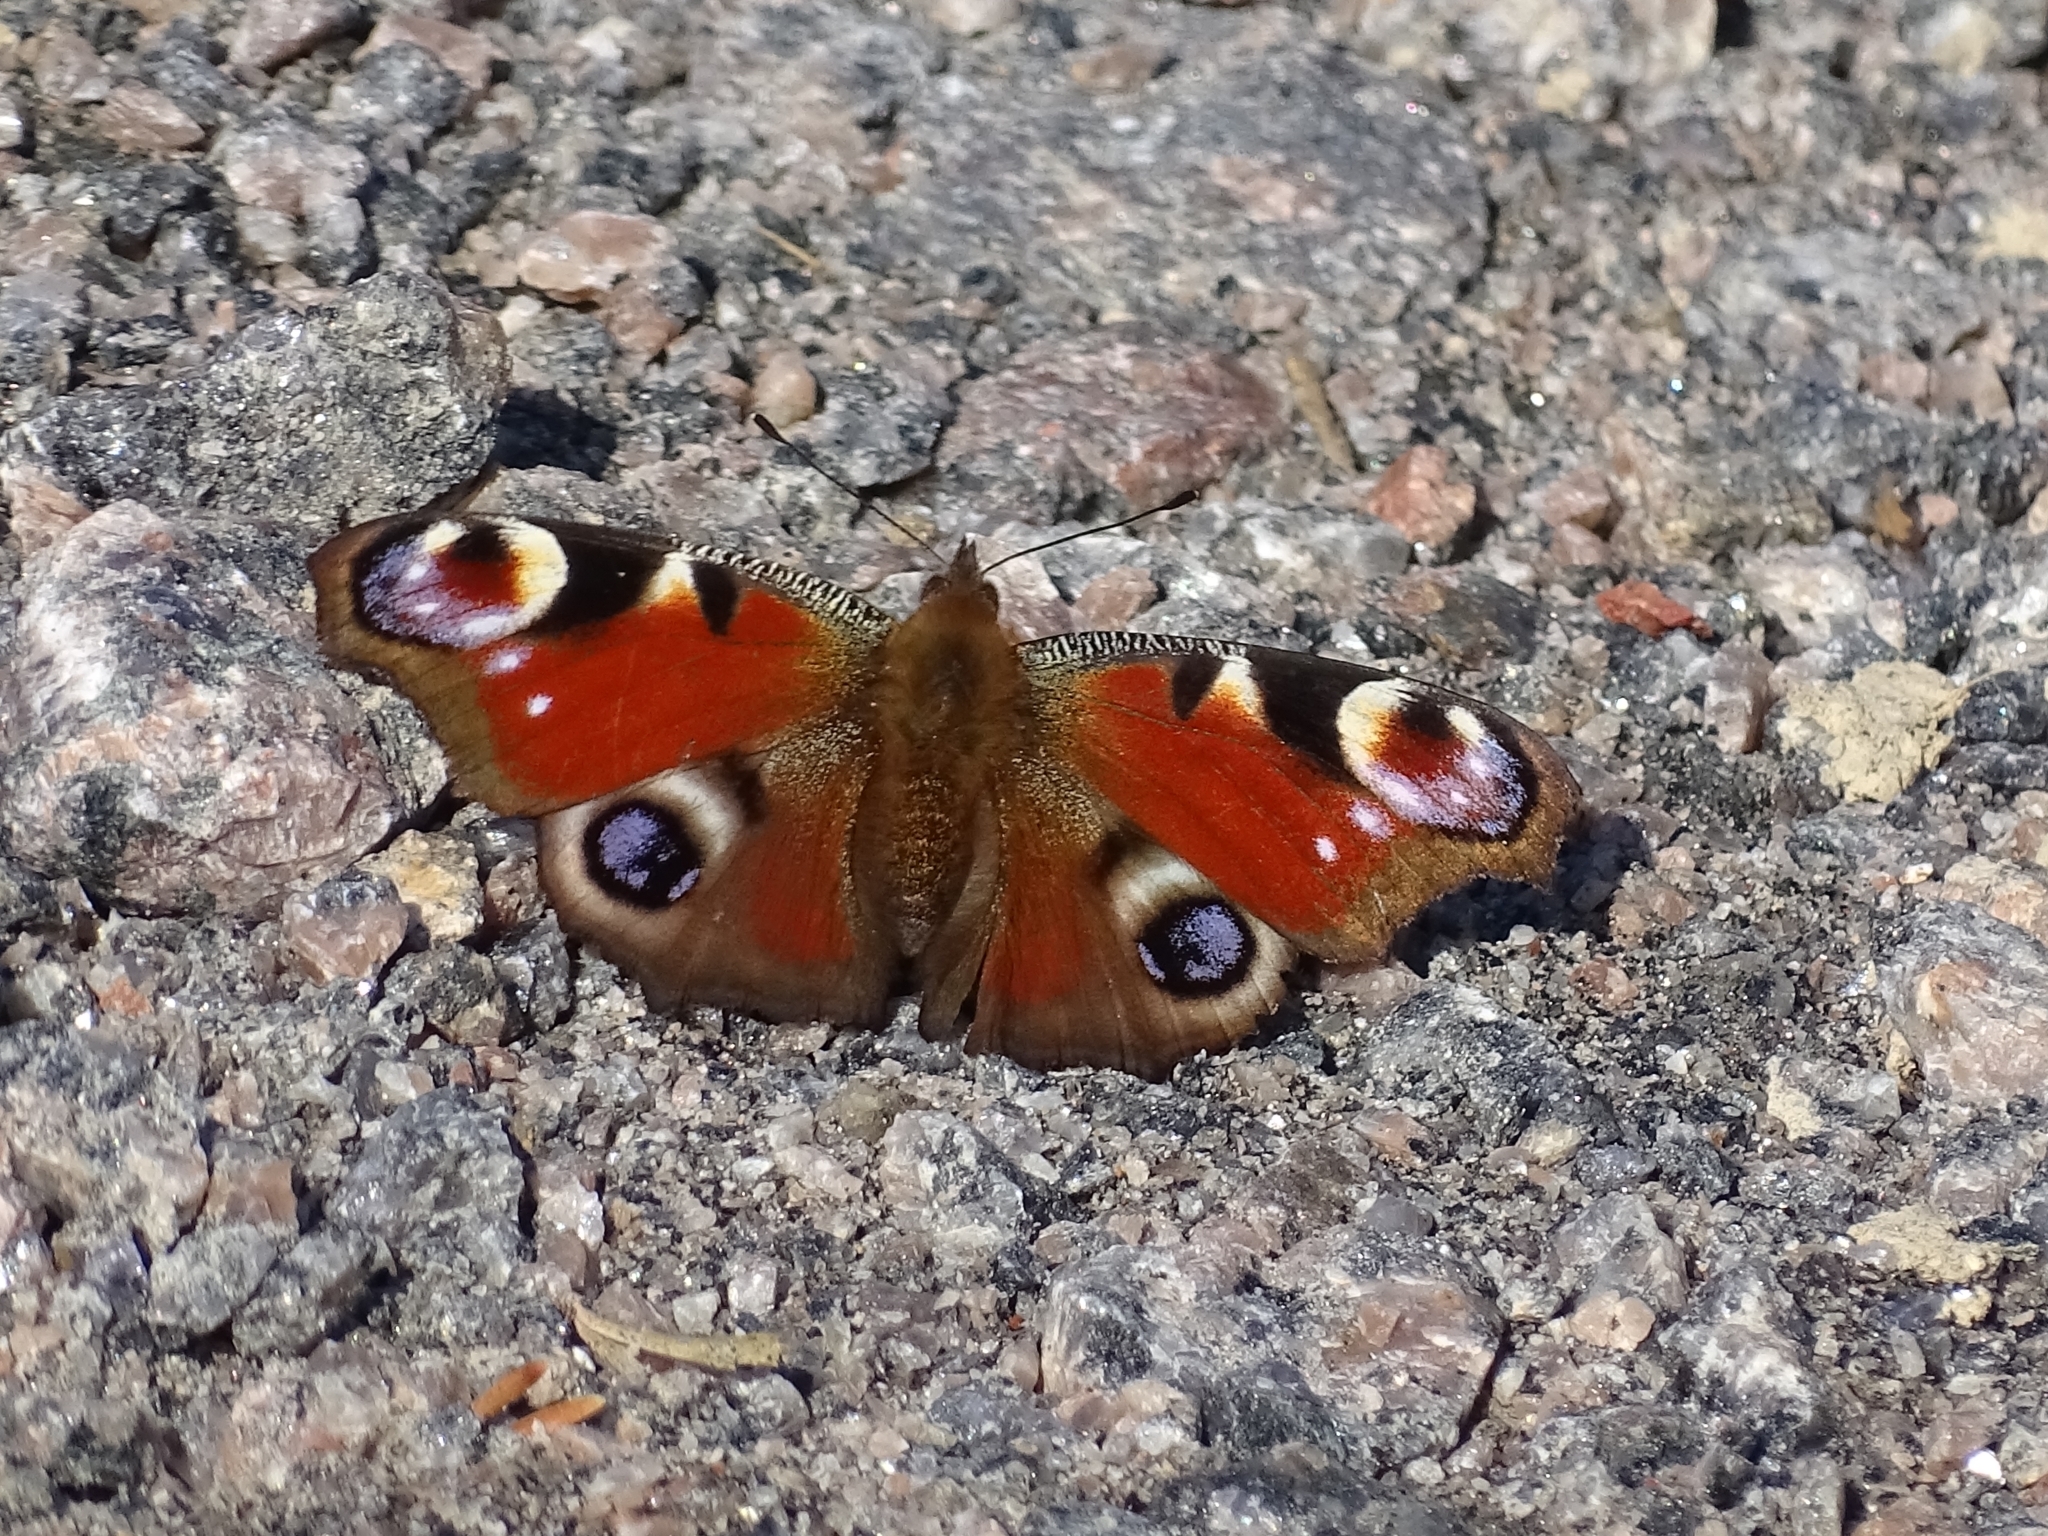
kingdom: Animalia
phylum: Arthropoda
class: Insecta
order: Lepidoptera
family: Nymphalidae
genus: Aglais
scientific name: Aglais io
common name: Peacock
